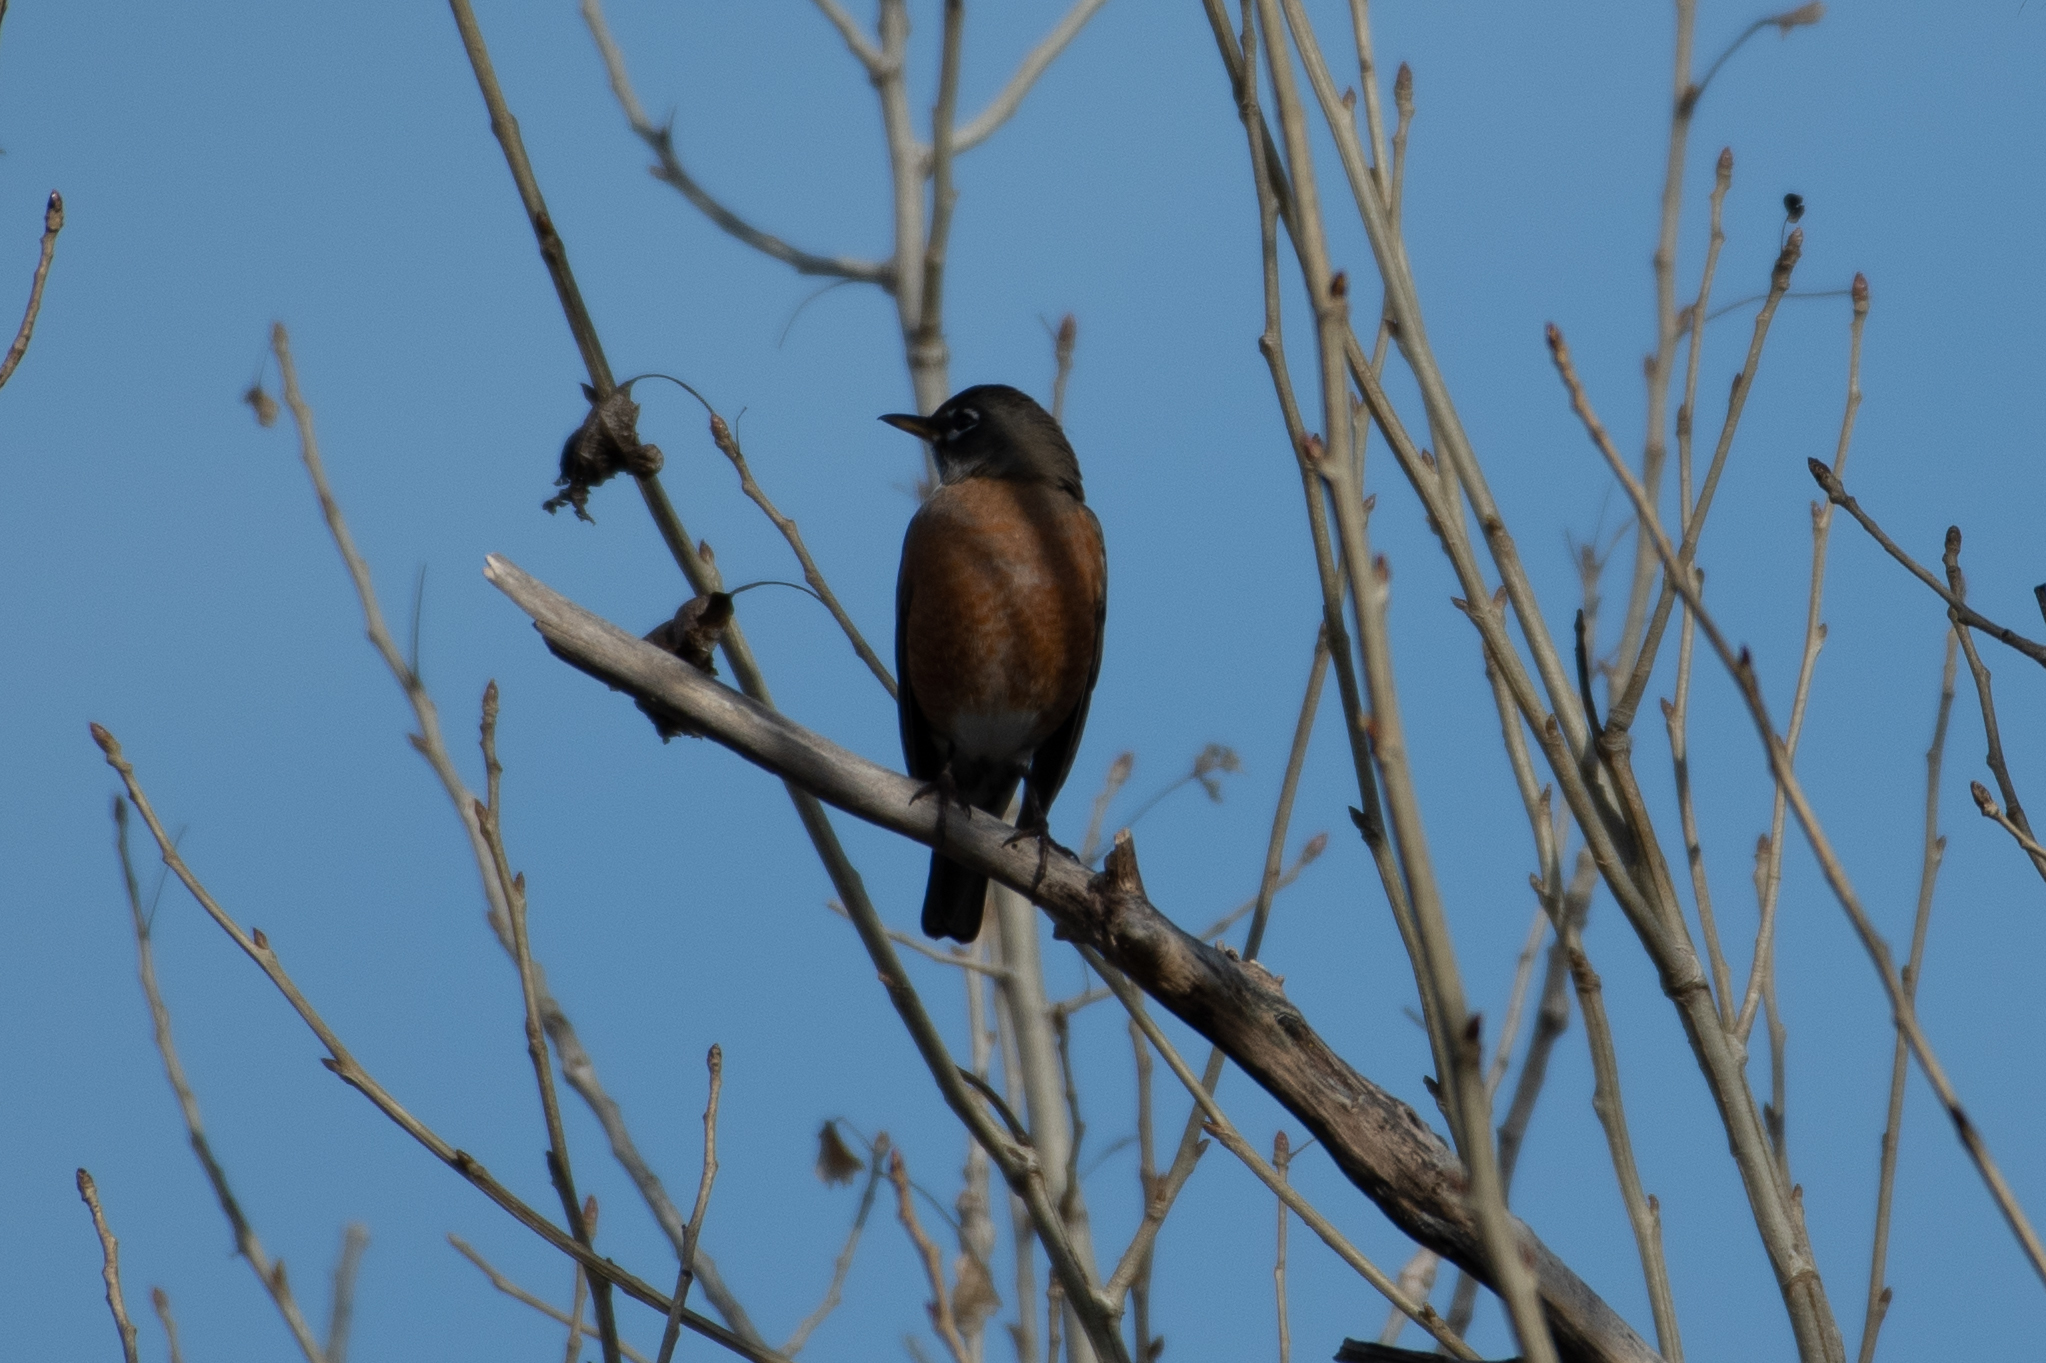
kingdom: Animalia
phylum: Chordata
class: Aves
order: Passeriformes
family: Turdidae
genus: Turdus
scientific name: Turdus migratorius
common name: American robin
